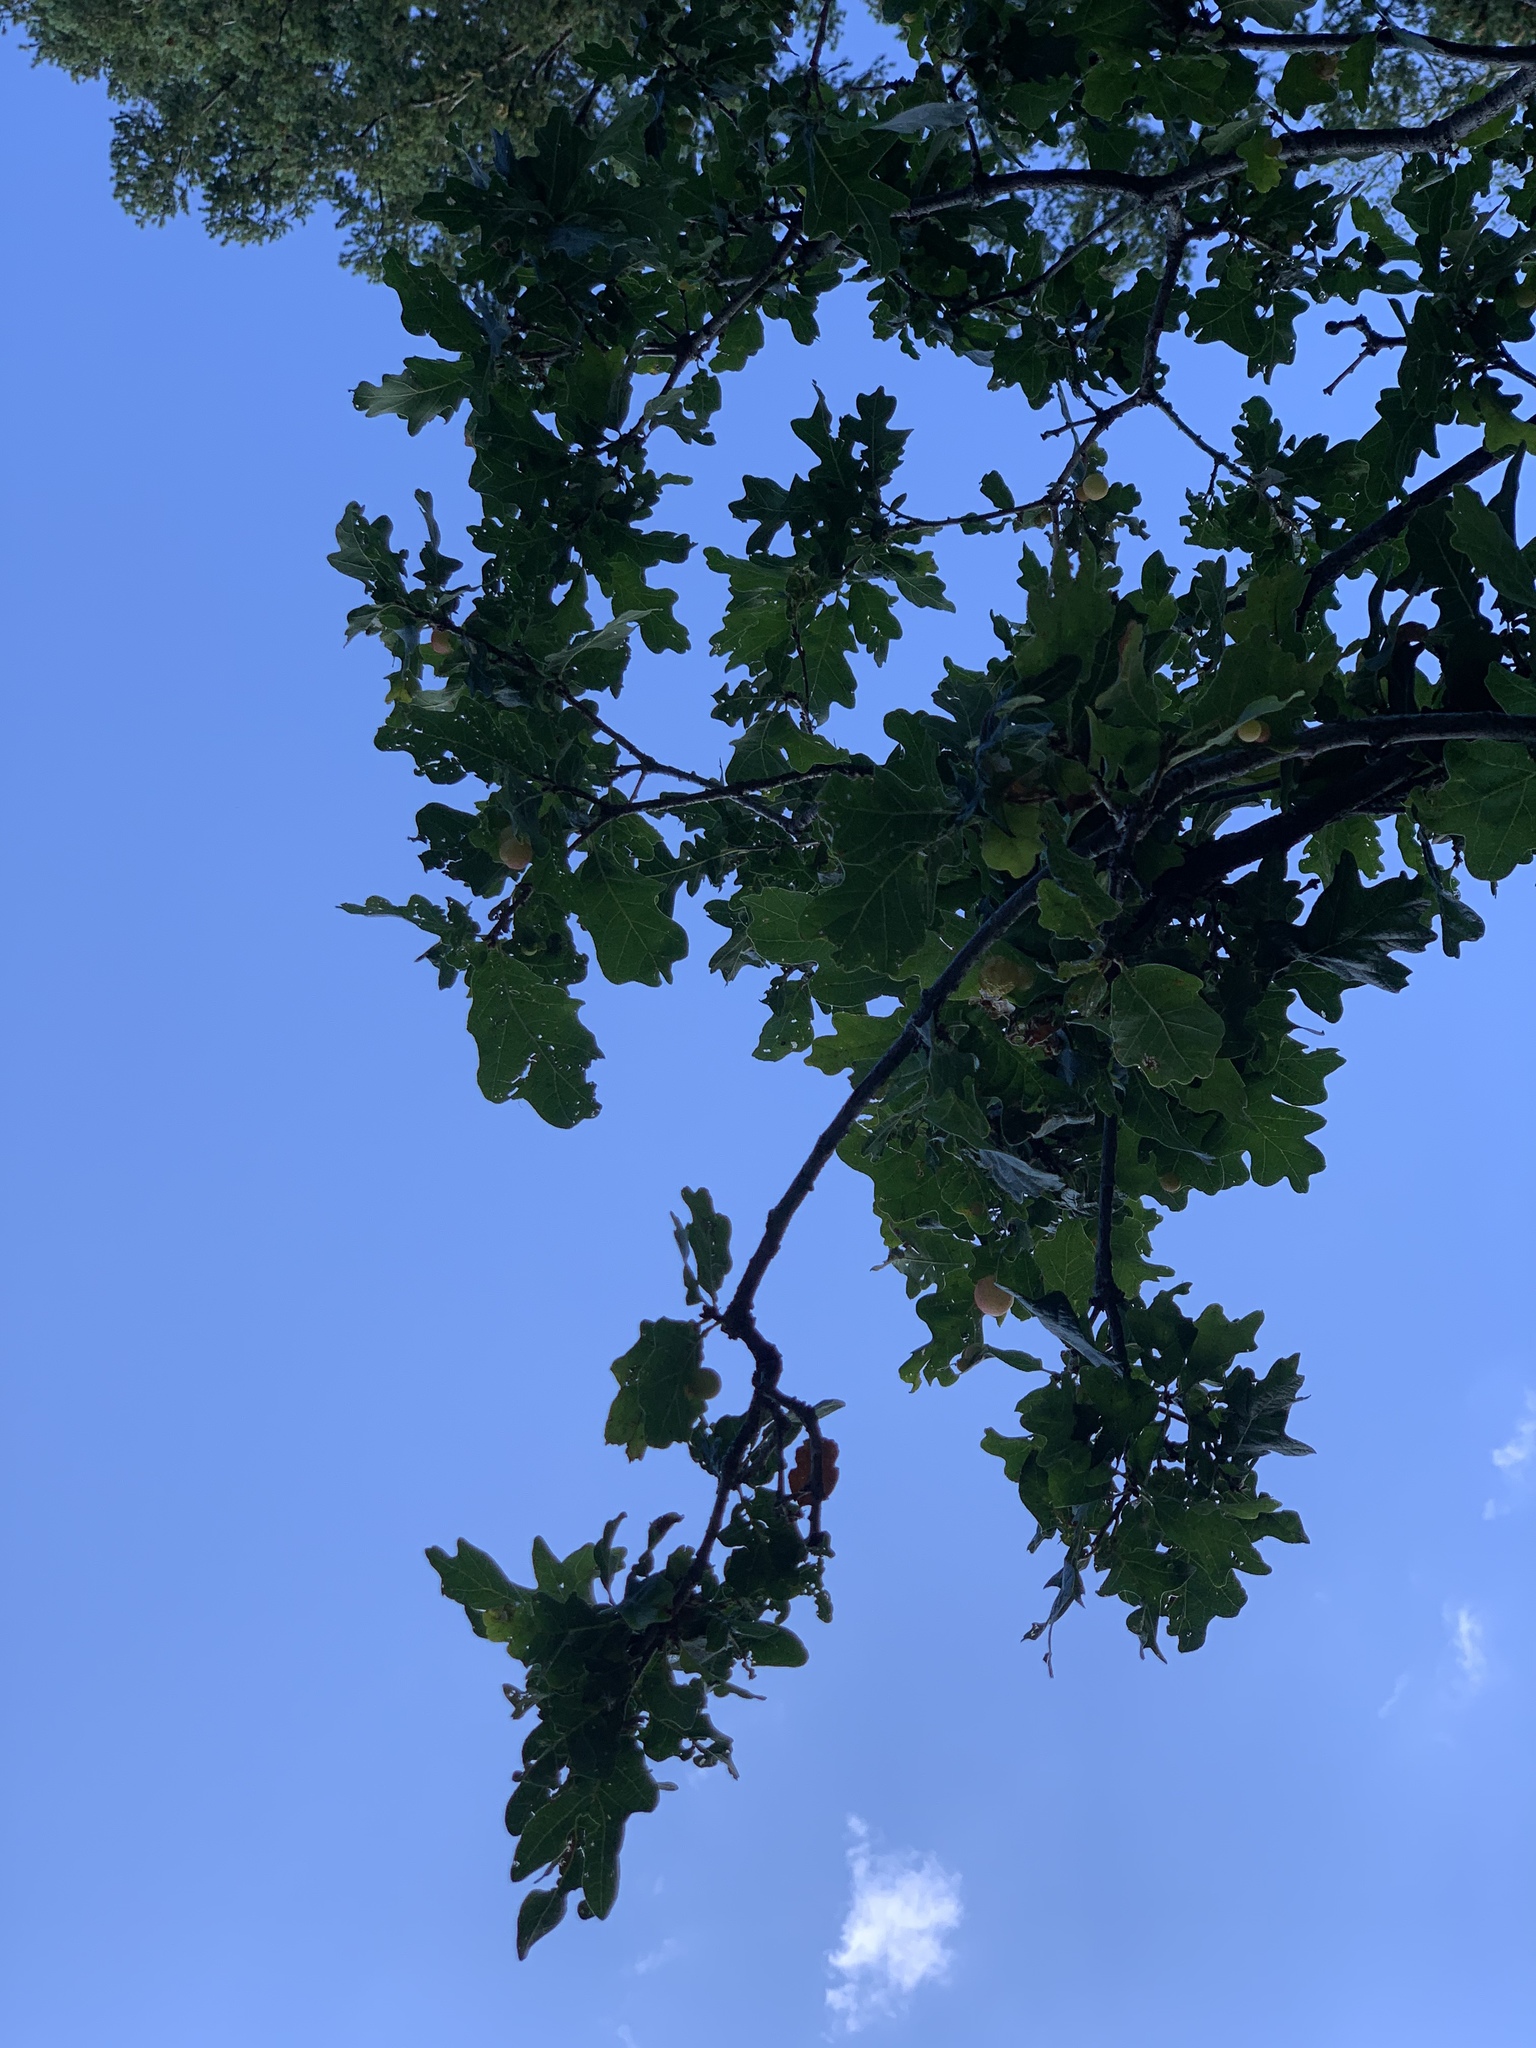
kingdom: Plantae
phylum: Tracheophyta
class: Magnoliopsida
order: Fagales
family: Fagaceae
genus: Quercus
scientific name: Quercus gambelii
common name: Gambel oak
